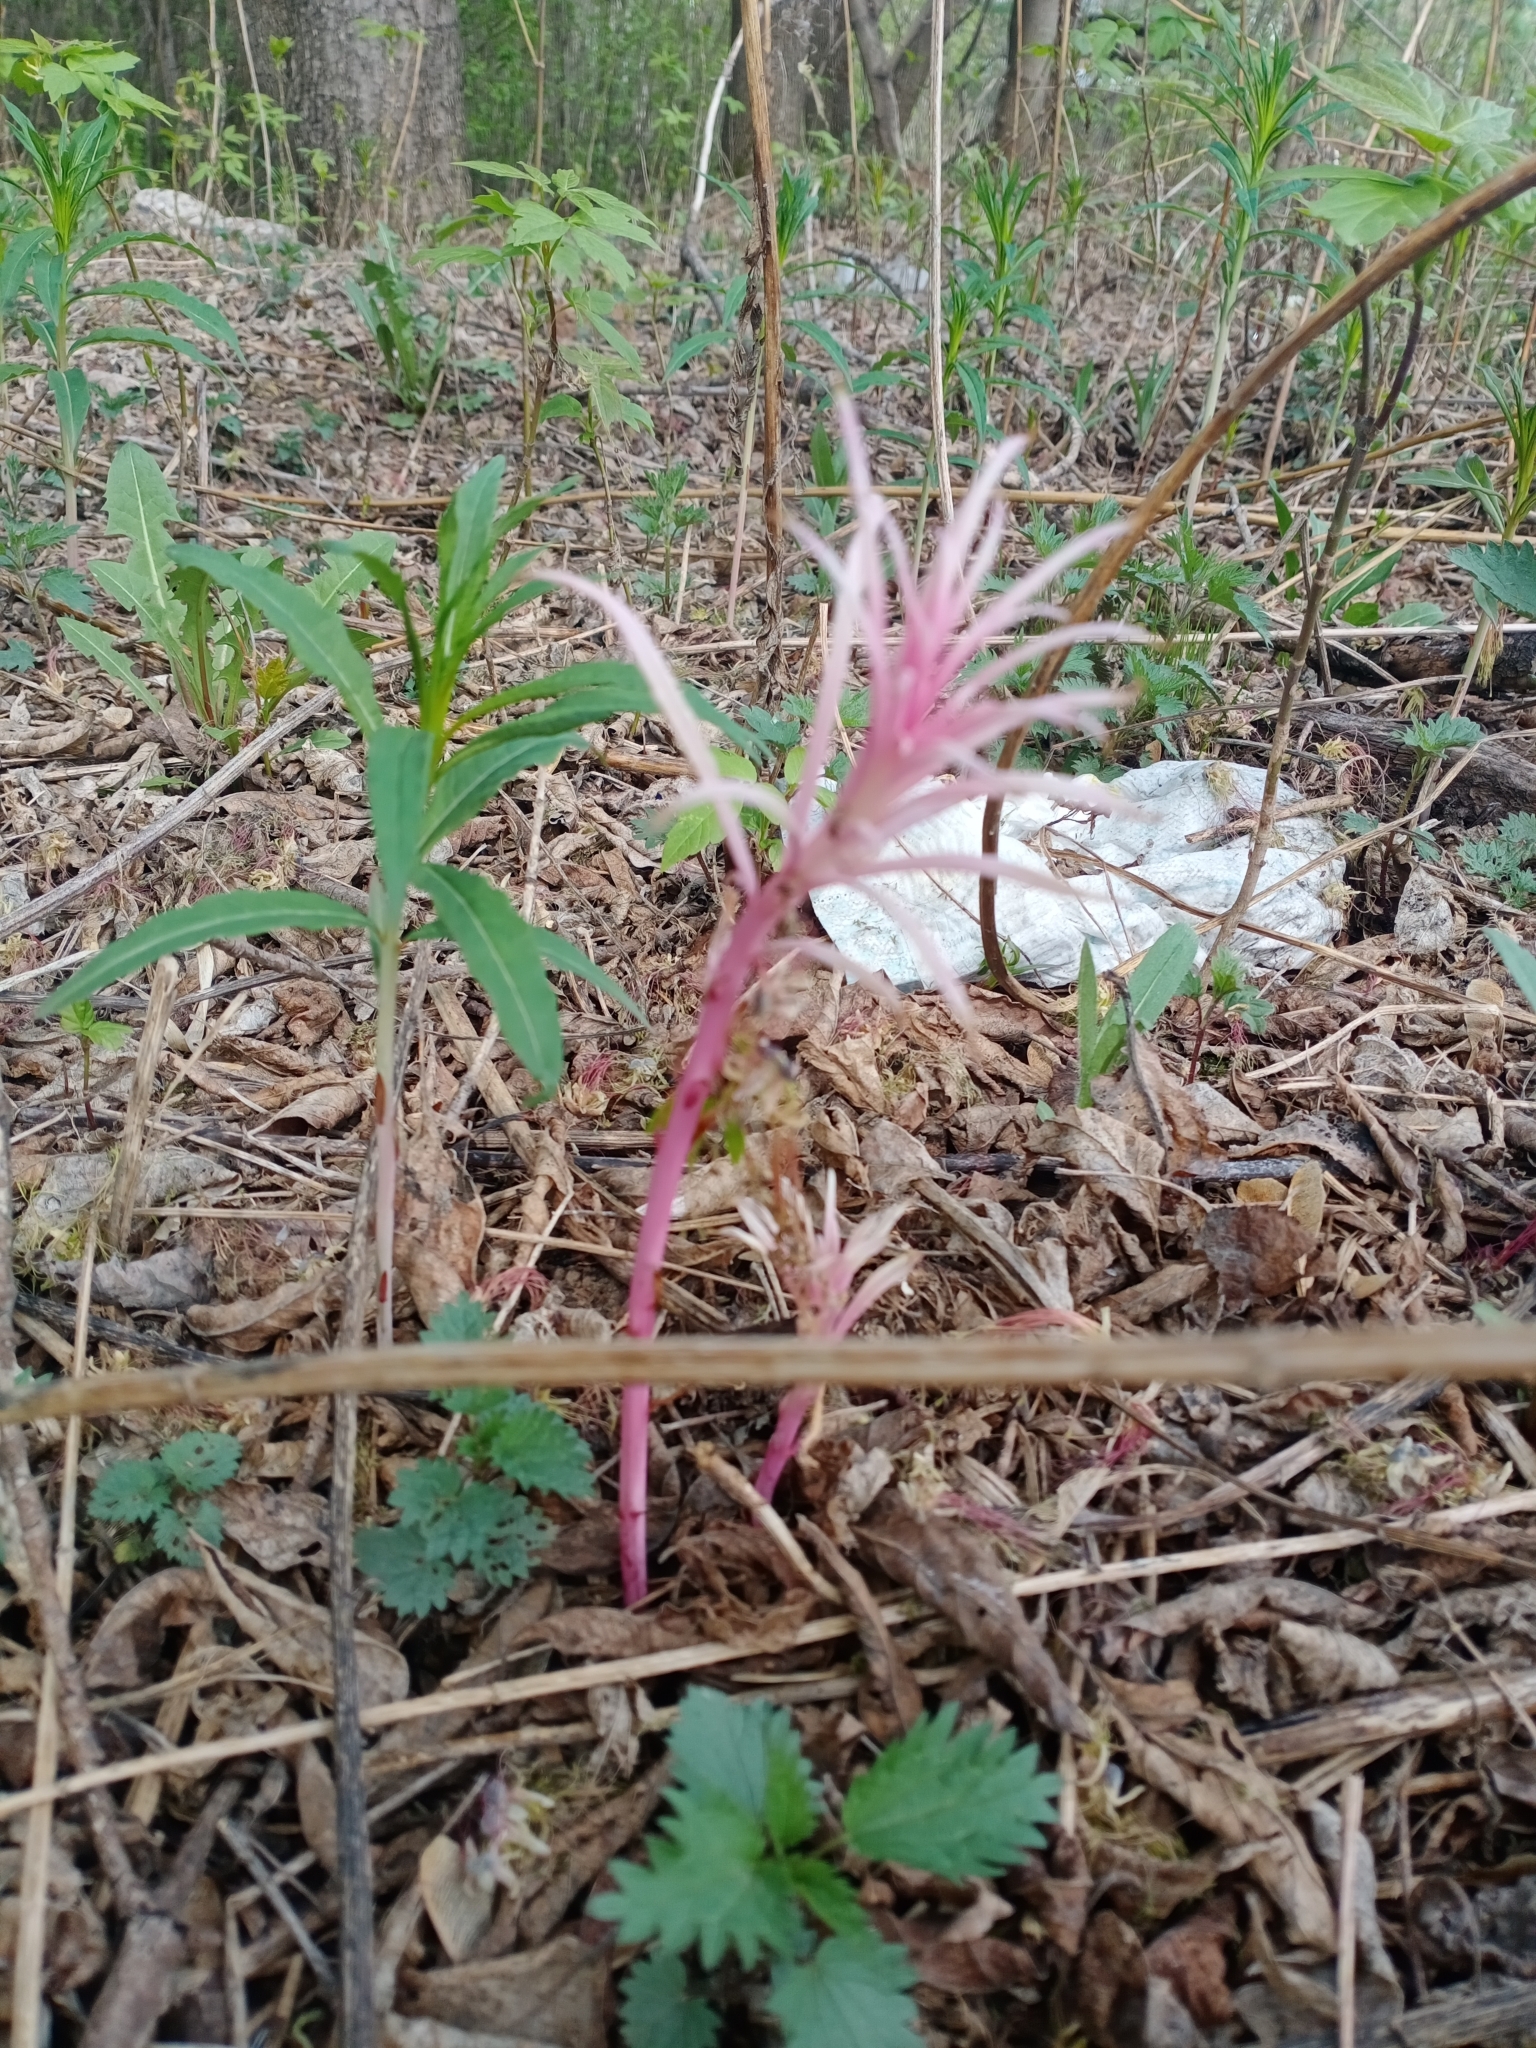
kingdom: Plantae
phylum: Tracheophyta
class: Magnoliopsida
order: Myrtales
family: Onagraceae
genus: Chamaenerion
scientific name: Chamaenerion angustifolium
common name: Fireweed
